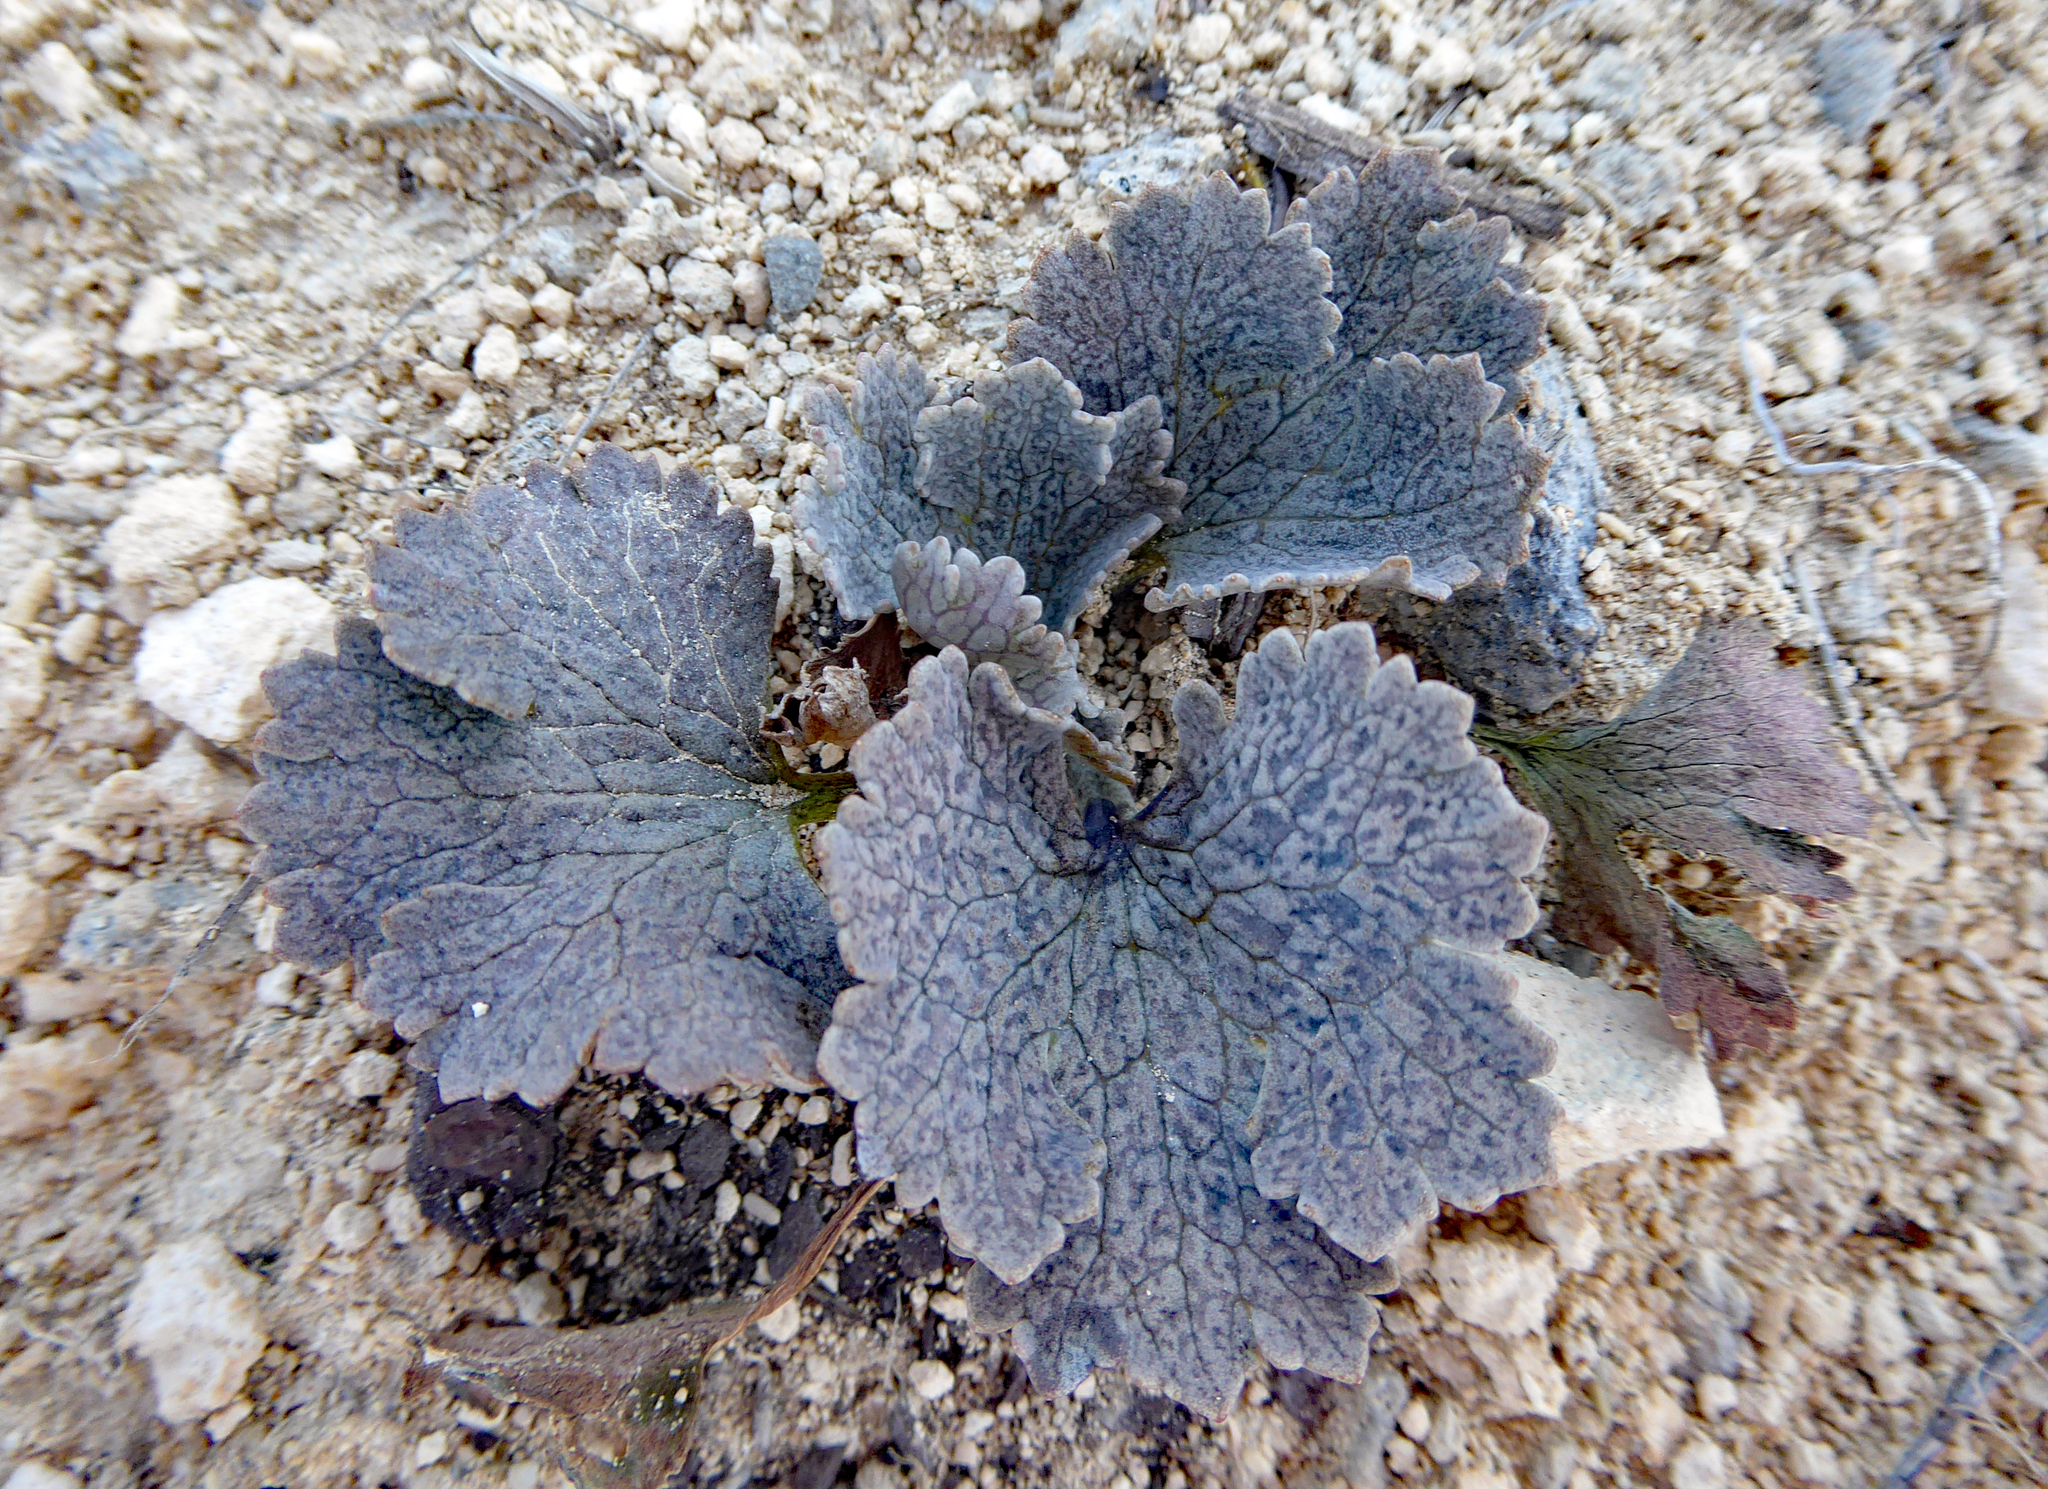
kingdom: Plantae
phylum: Tracheophyta
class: Magnoliopsida
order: Ranunculales
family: Ranunculaceae
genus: Ranunculus
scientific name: Ranunculus paucifolius
